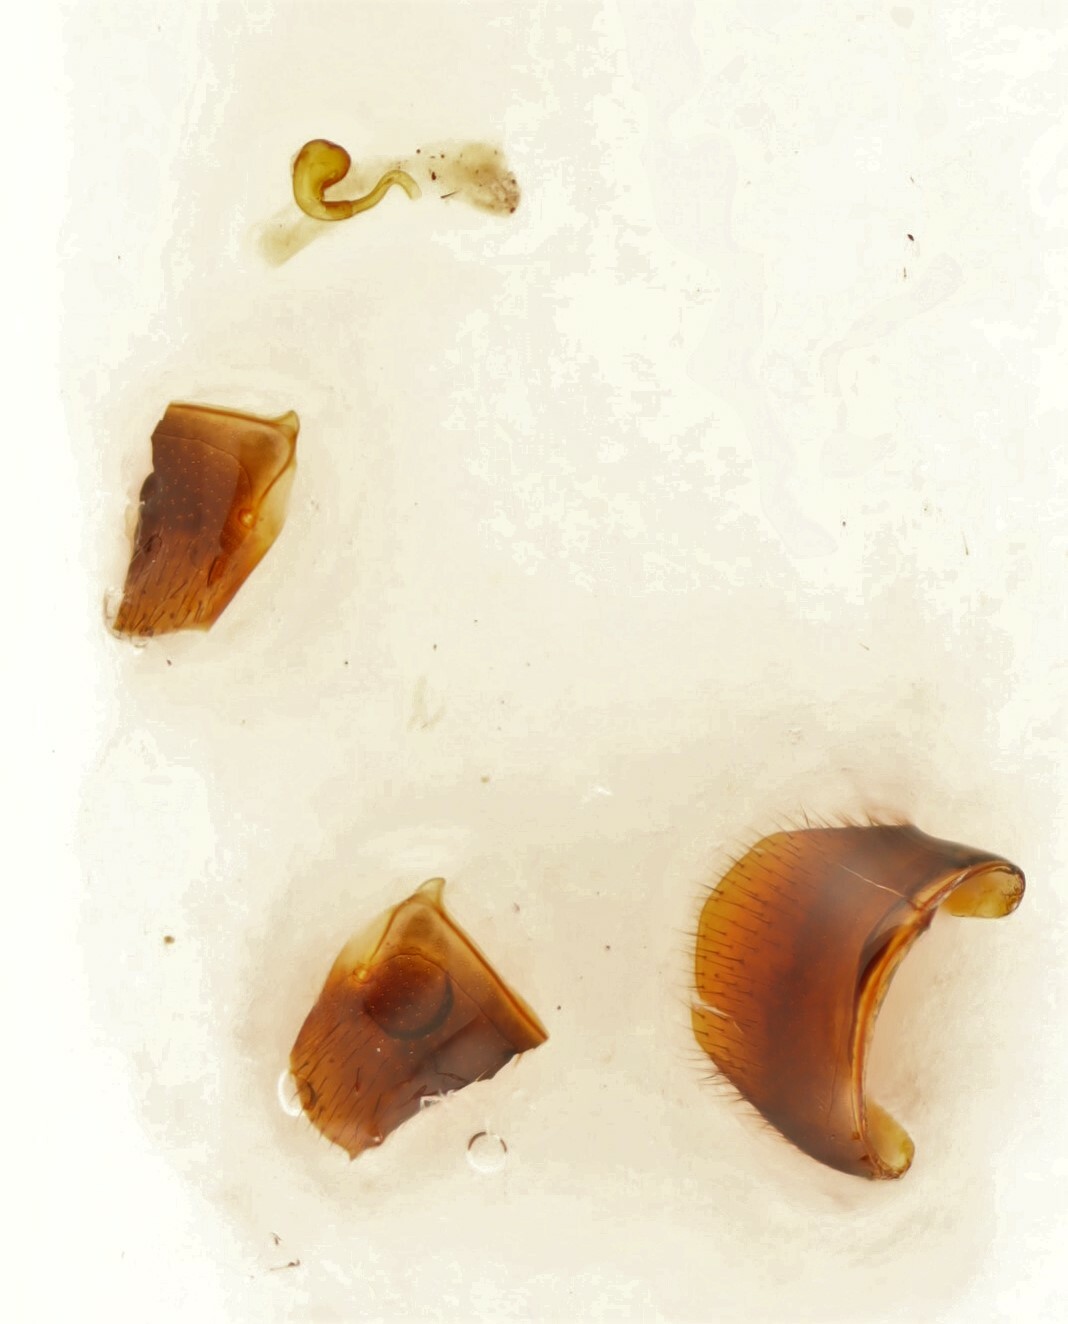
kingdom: Animalia
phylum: Arthropoda
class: Insecta
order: Coleoptera
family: Staphylinidae
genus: Aleochara
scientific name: Aleochara sculptiventris
